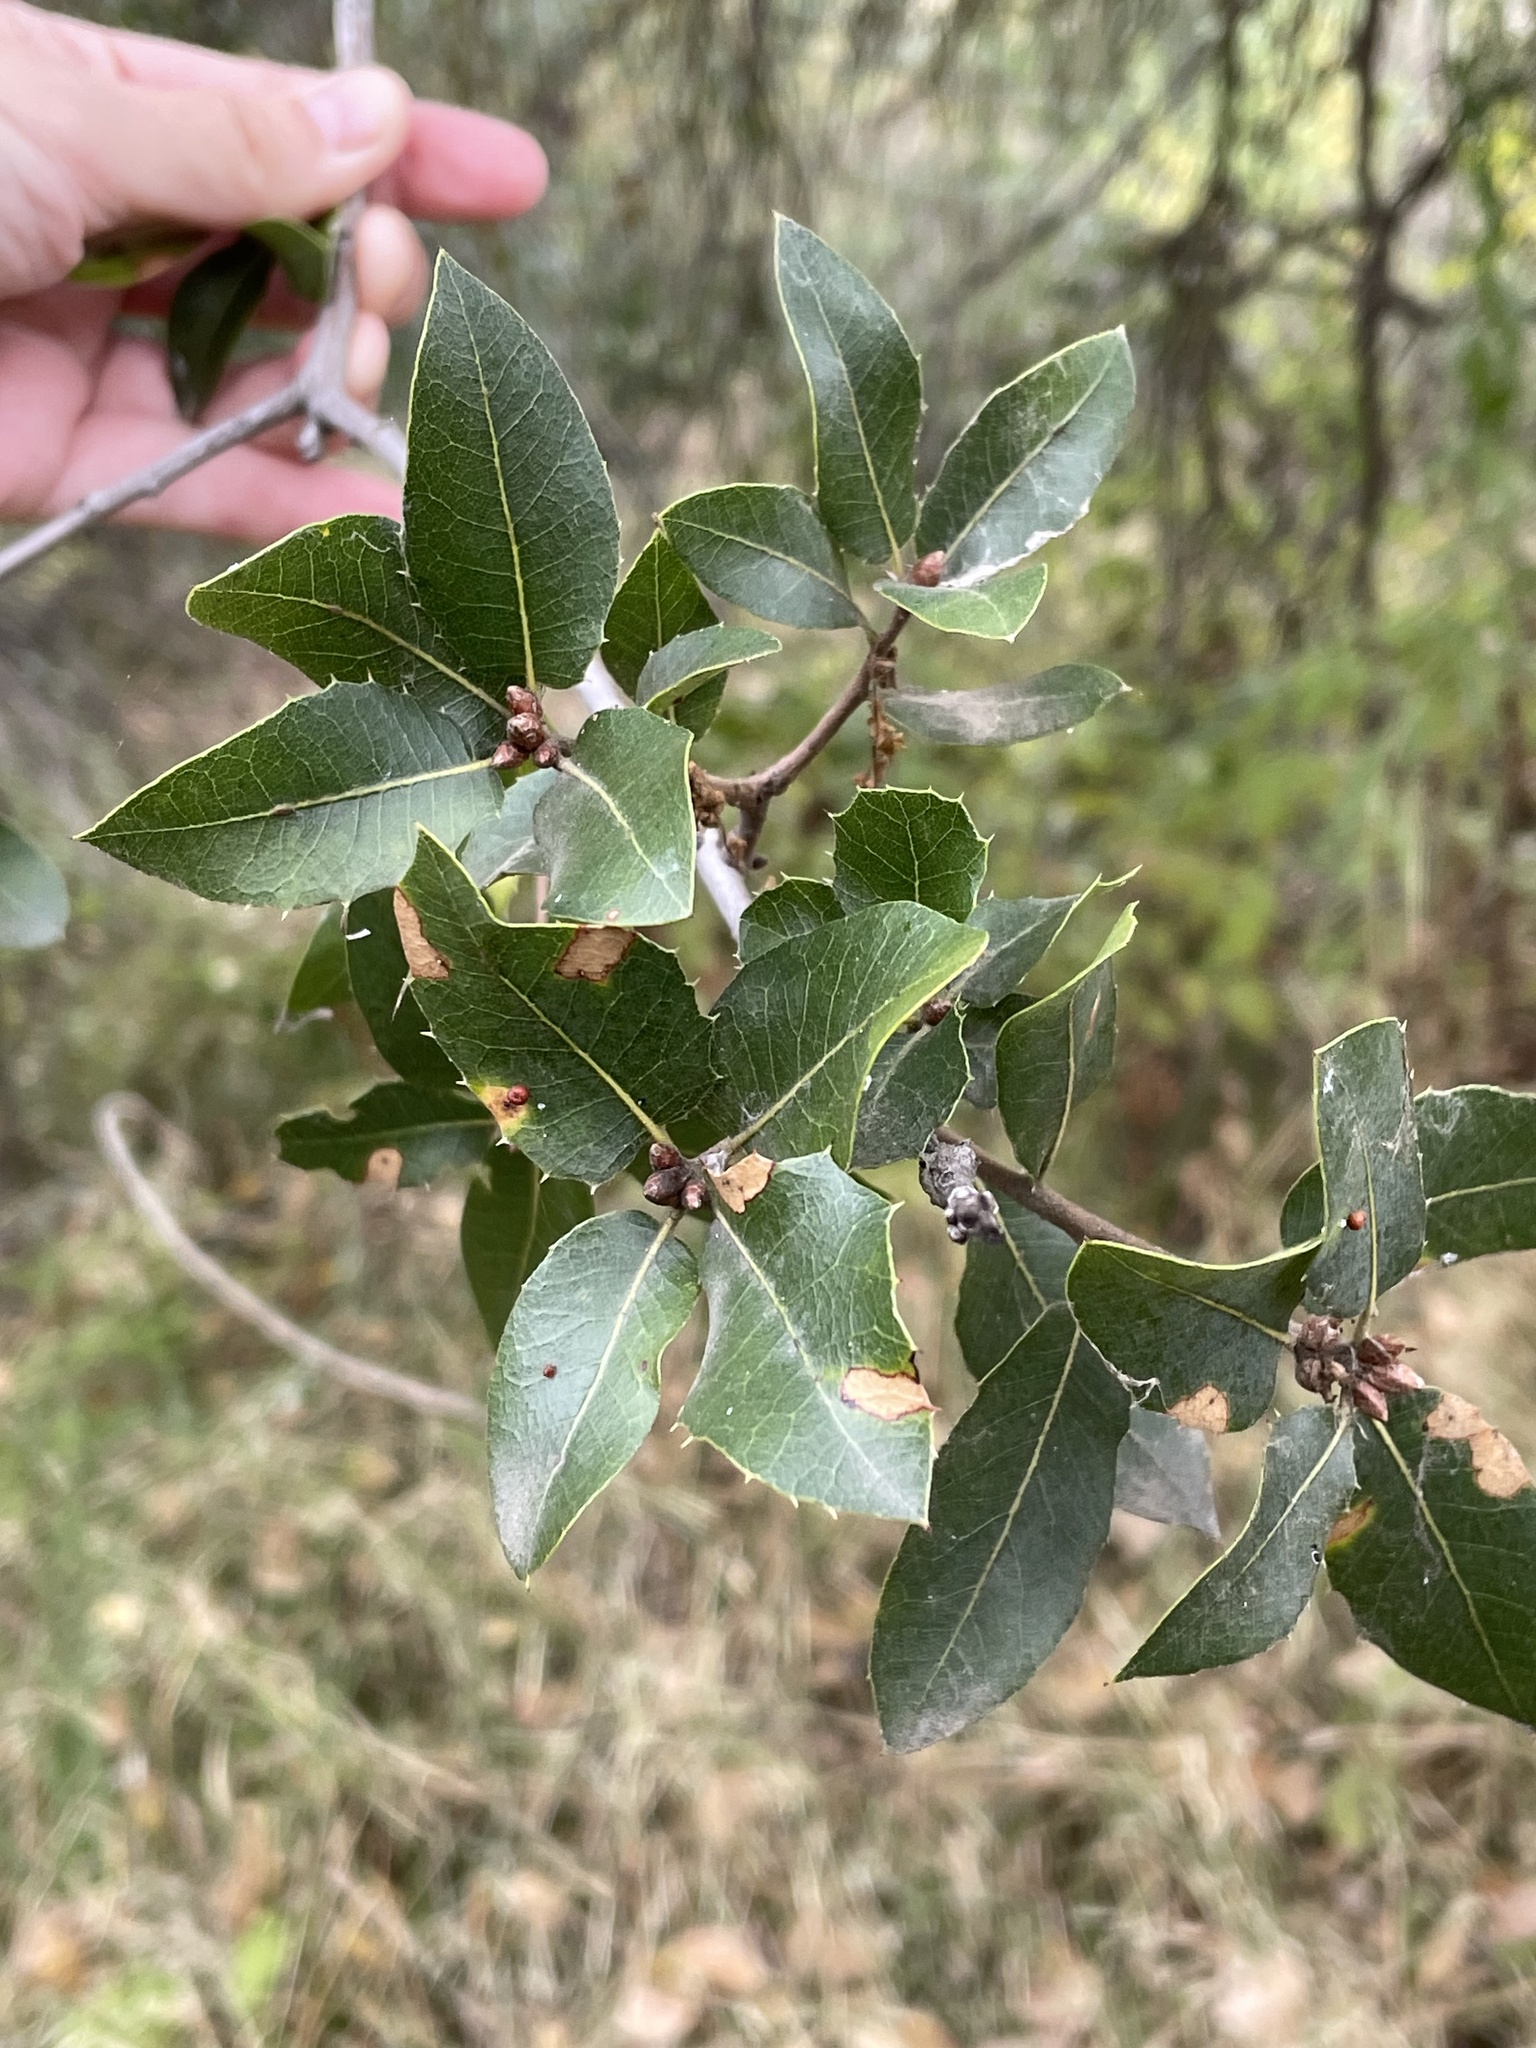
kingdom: Plantae
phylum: Tracheophyta
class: Magnoliopsida
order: Fagales
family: Fagaceae
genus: Quercus
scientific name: Quercus wislizeni
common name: Interior live oak
